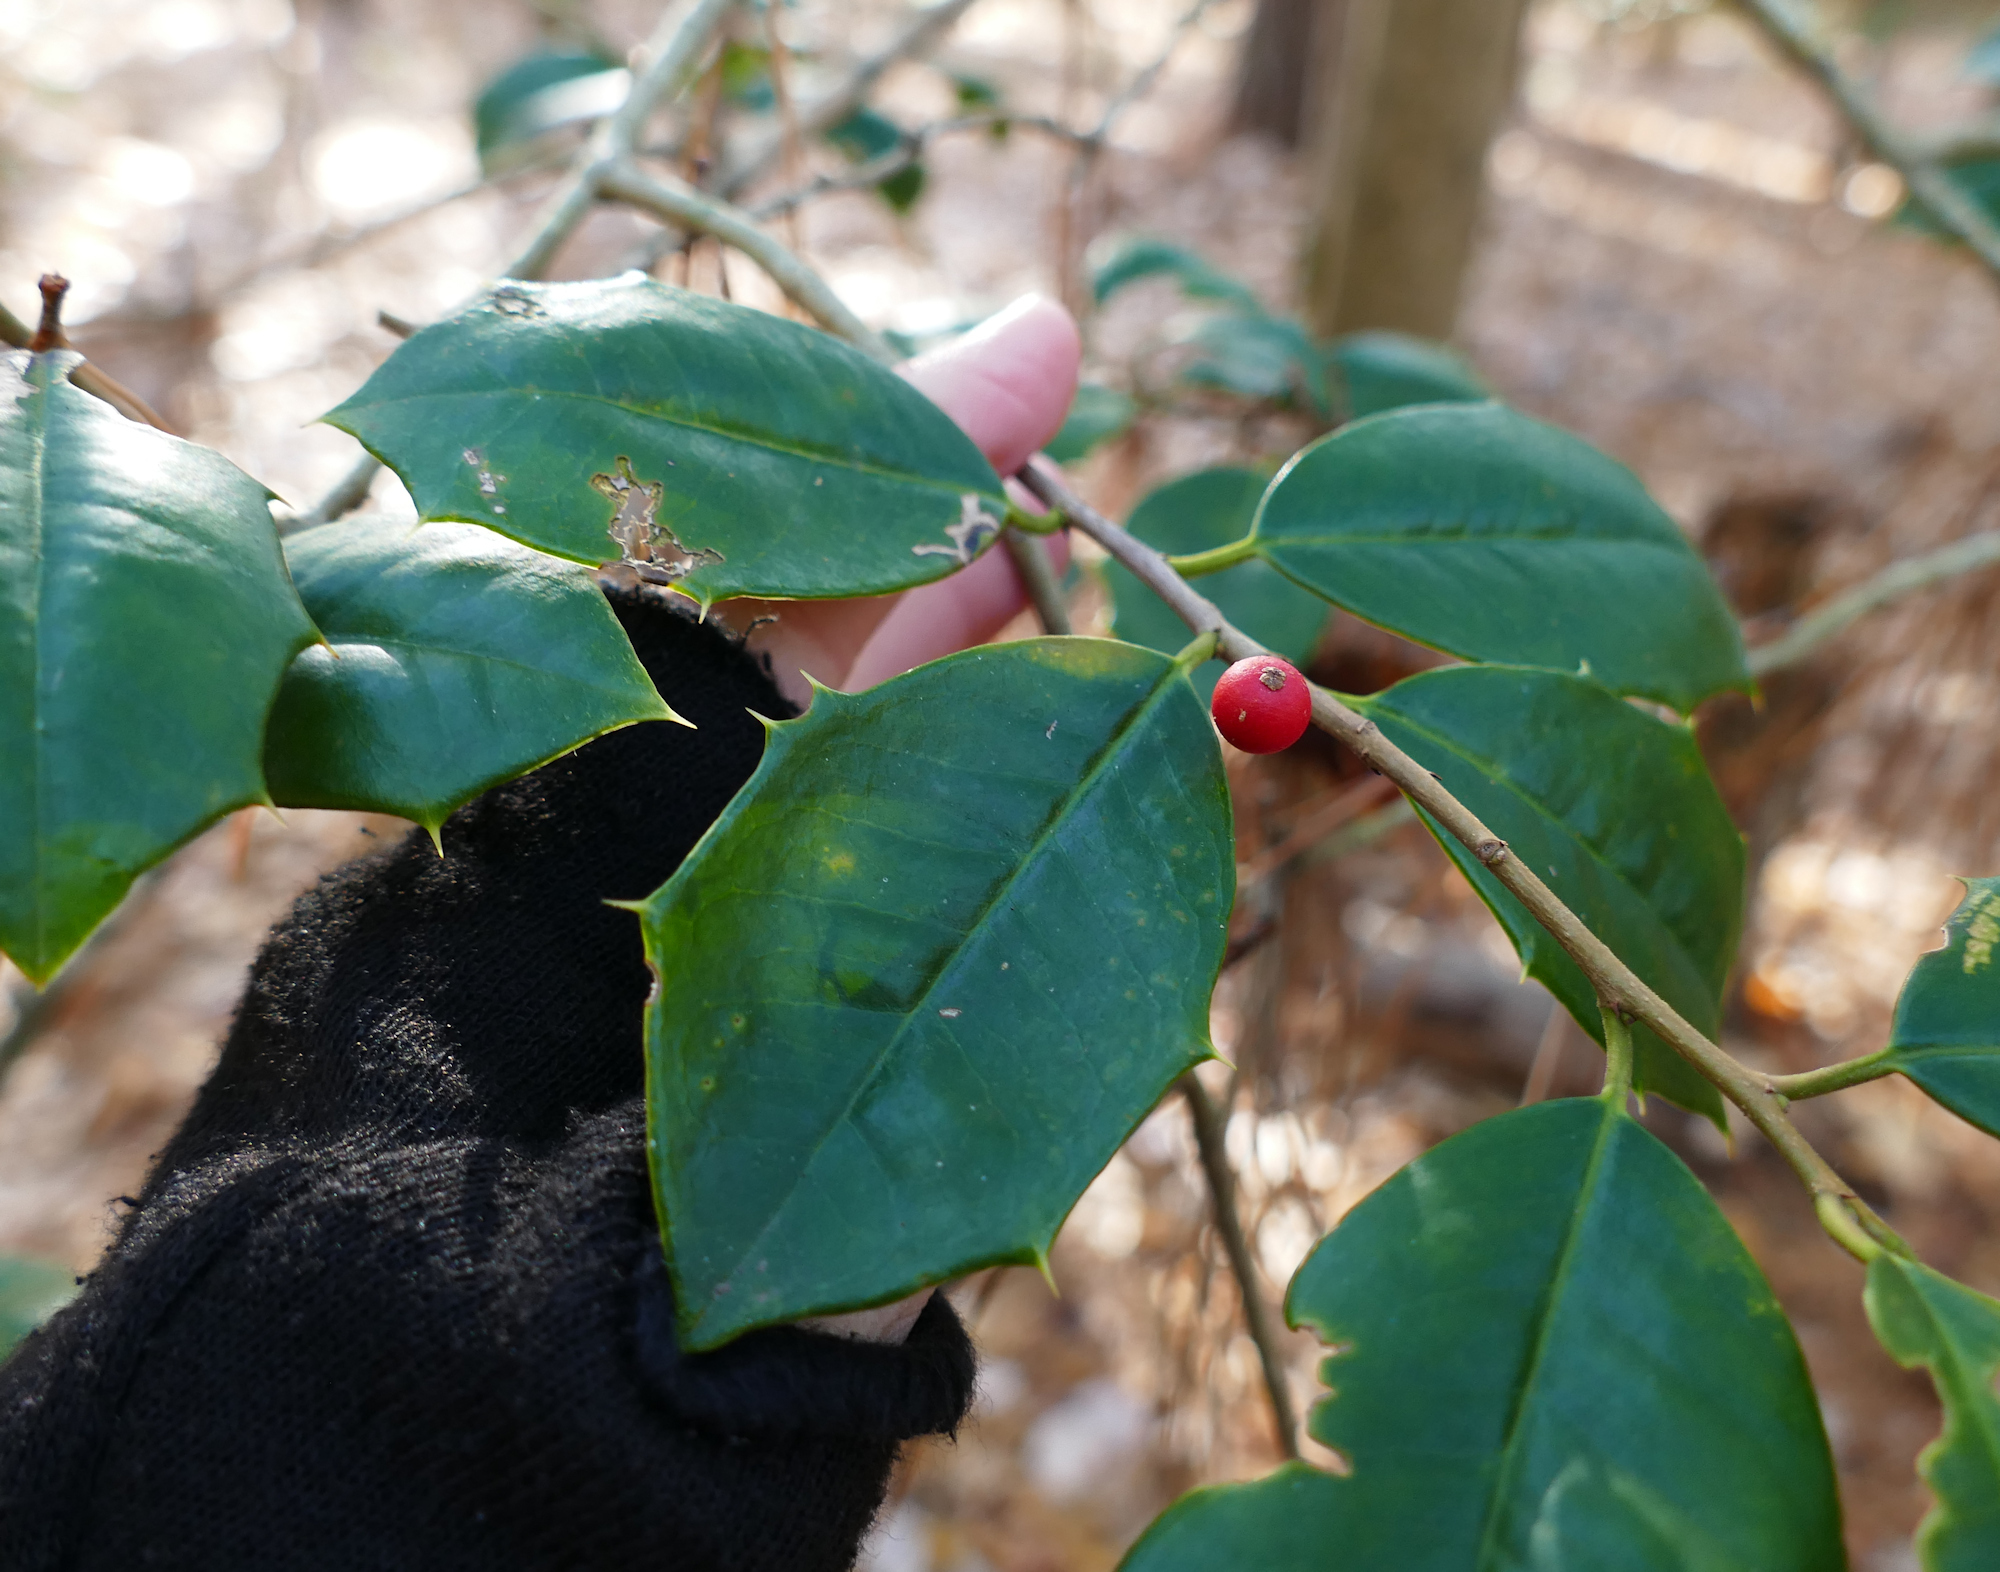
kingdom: Plantae
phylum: Tracheophyta
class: Magnoliopsida
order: Aquifoliales
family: Aquifoliaceae
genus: Ilex
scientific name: Ilex opaca
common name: American holly
